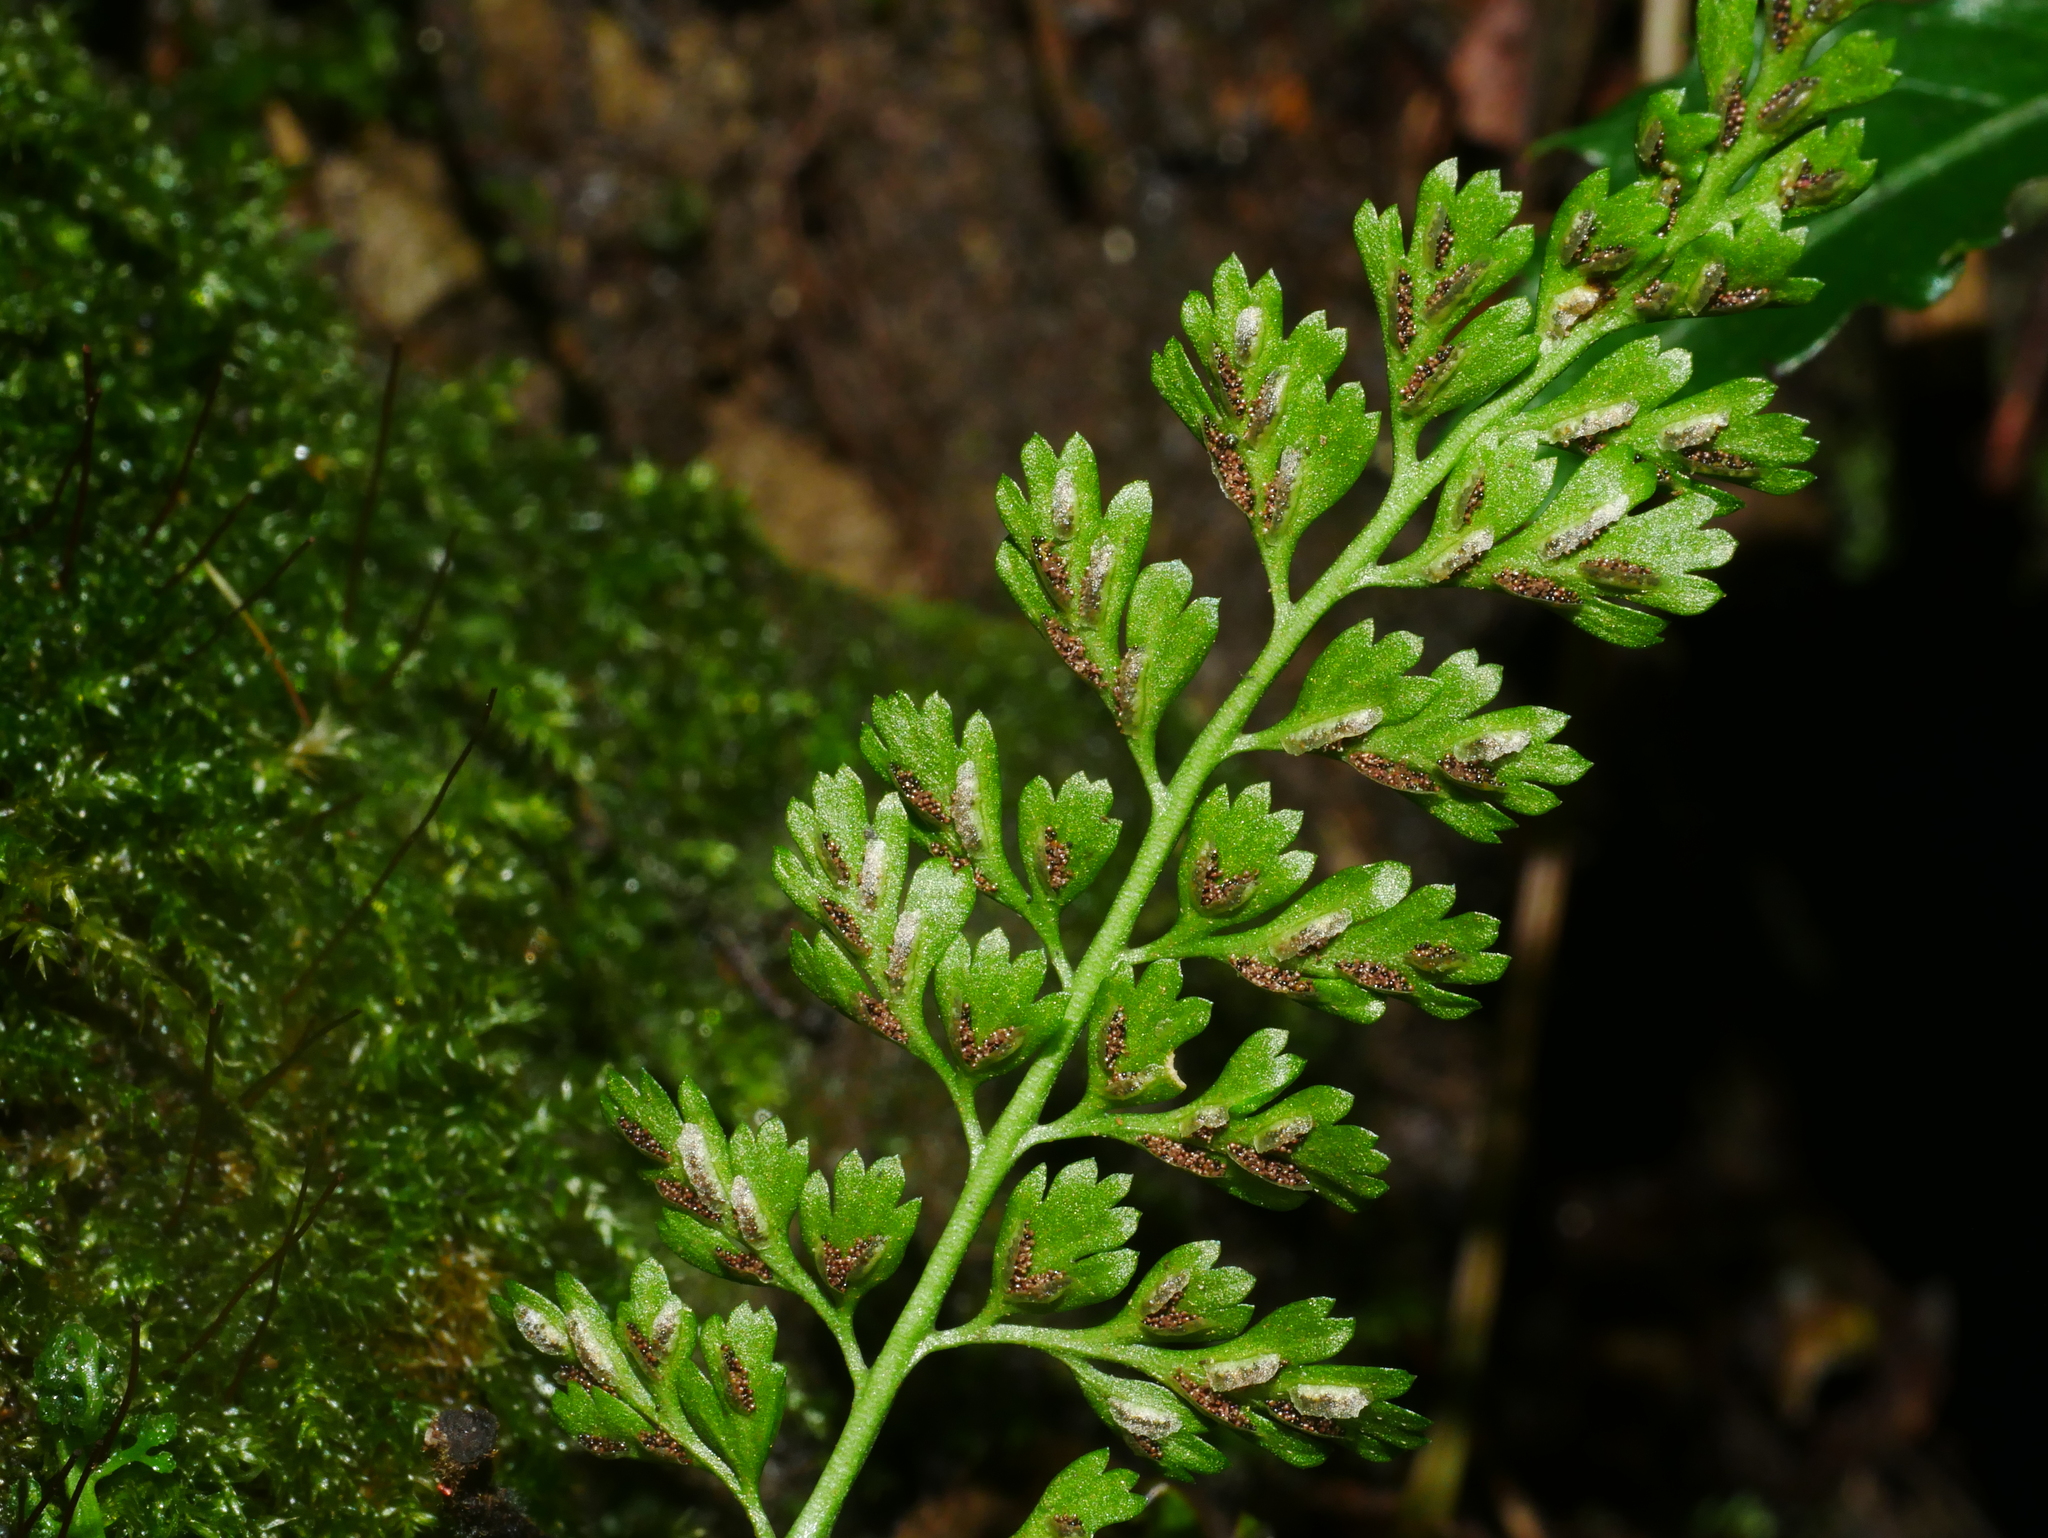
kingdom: Plantae
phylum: Tracheophyta
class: Polypodiopsida
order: Polypodiales
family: Aspleniaceae
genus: Asplenium
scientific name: Asplenium laciniatum
